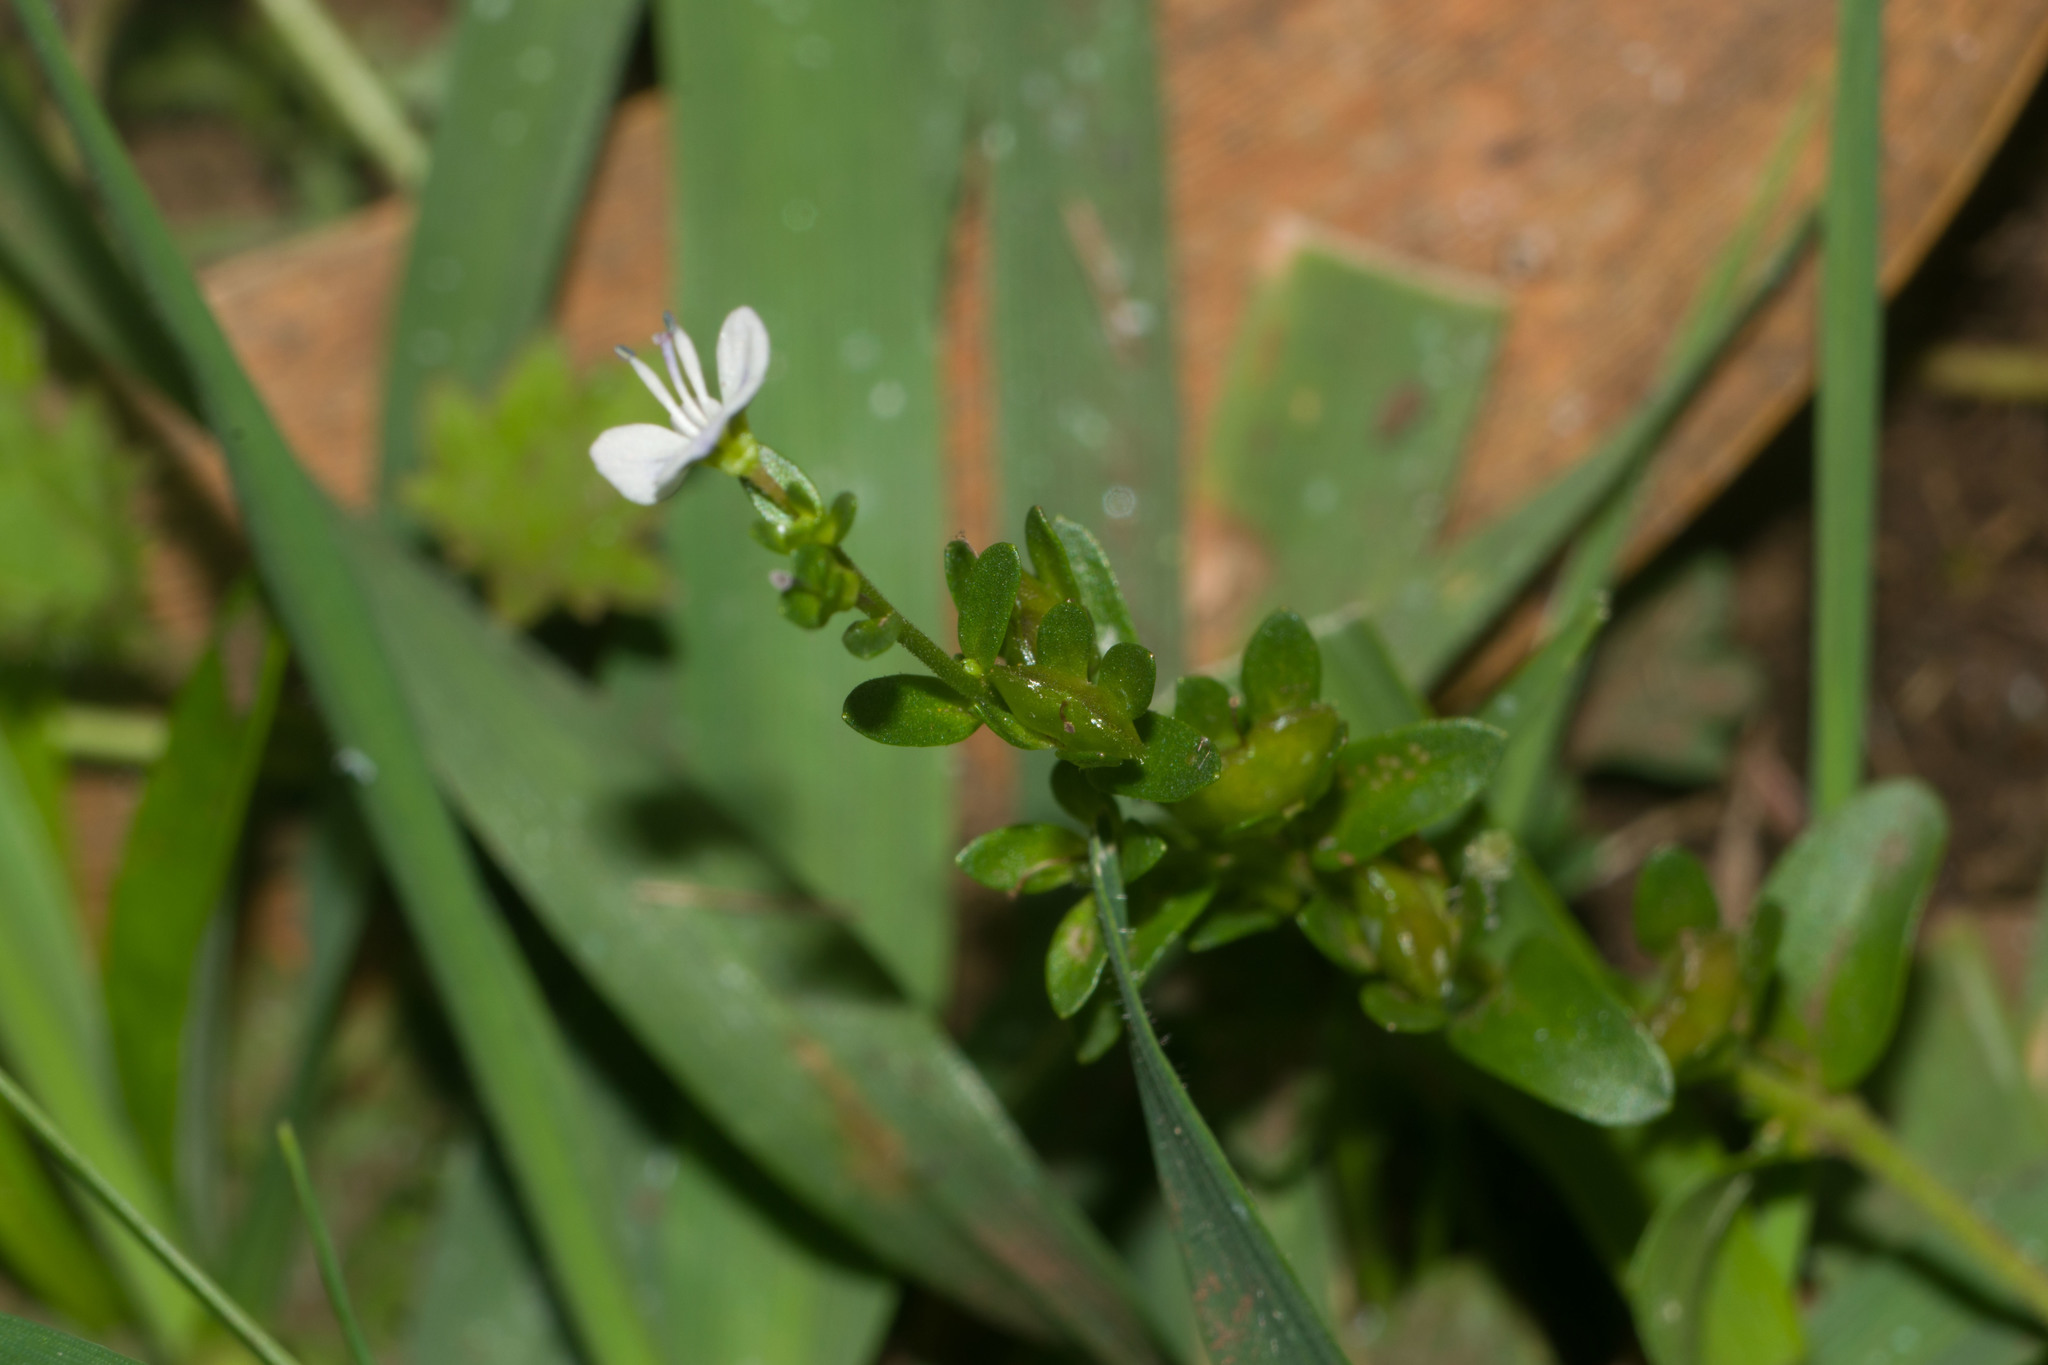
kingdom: Plantae
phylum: Tracheophyta
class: Magnoliopsida
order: Lamiales
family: Plantaginaceae
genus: Veronica
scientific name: Veronica serpyllifolia
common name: Thyme-leaved speedwell
